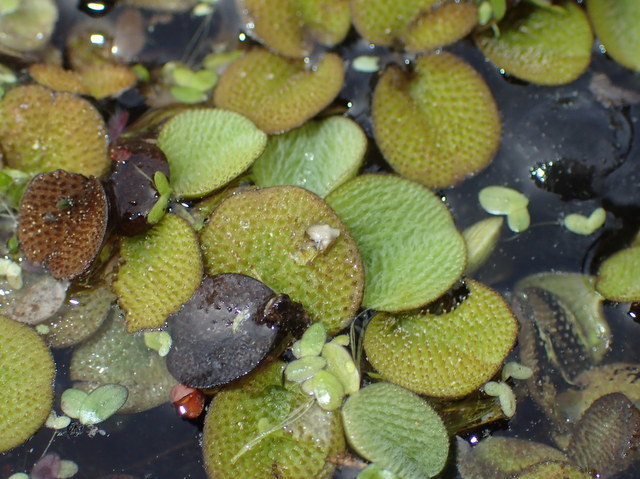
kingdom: Plantae
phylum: Tracheophyta
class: Polypodiopsida
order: Salviniales
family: Salviniaceae
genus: Salvinia
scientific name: Salvinia minima
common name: Water spangles
